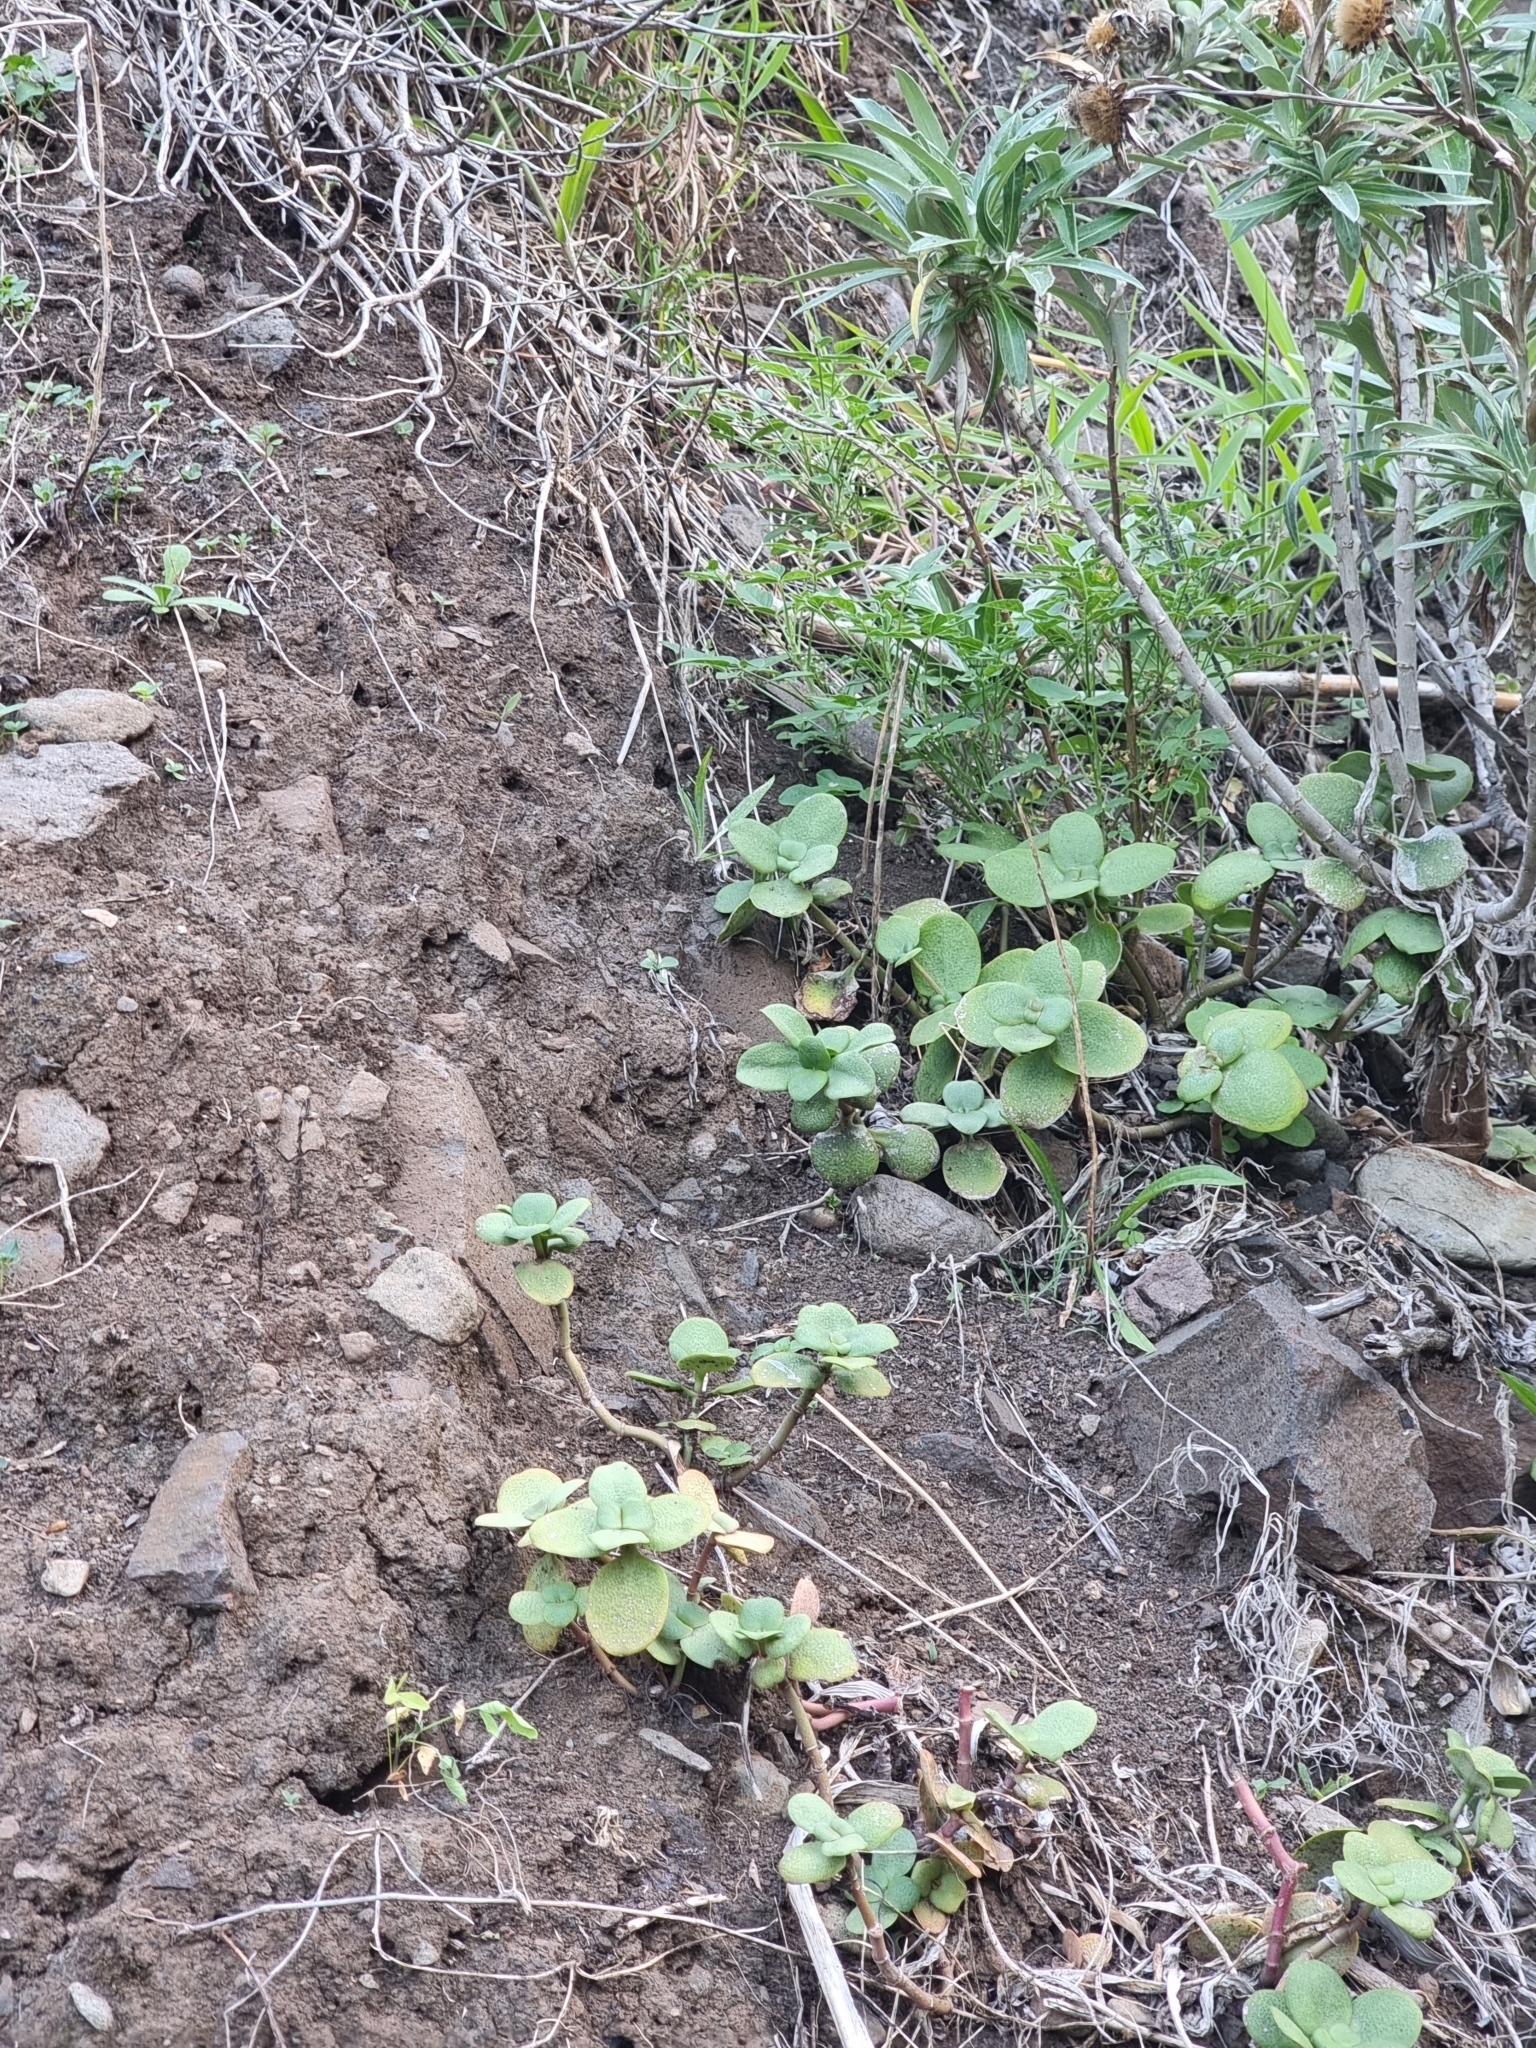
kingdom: Plantae
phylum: Tracheophyta
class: Magnoliopsida
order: Saxifragales
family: Crassulaceae
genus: Crassula
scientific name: Crassula multicava
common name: Cape province pygmyweed
